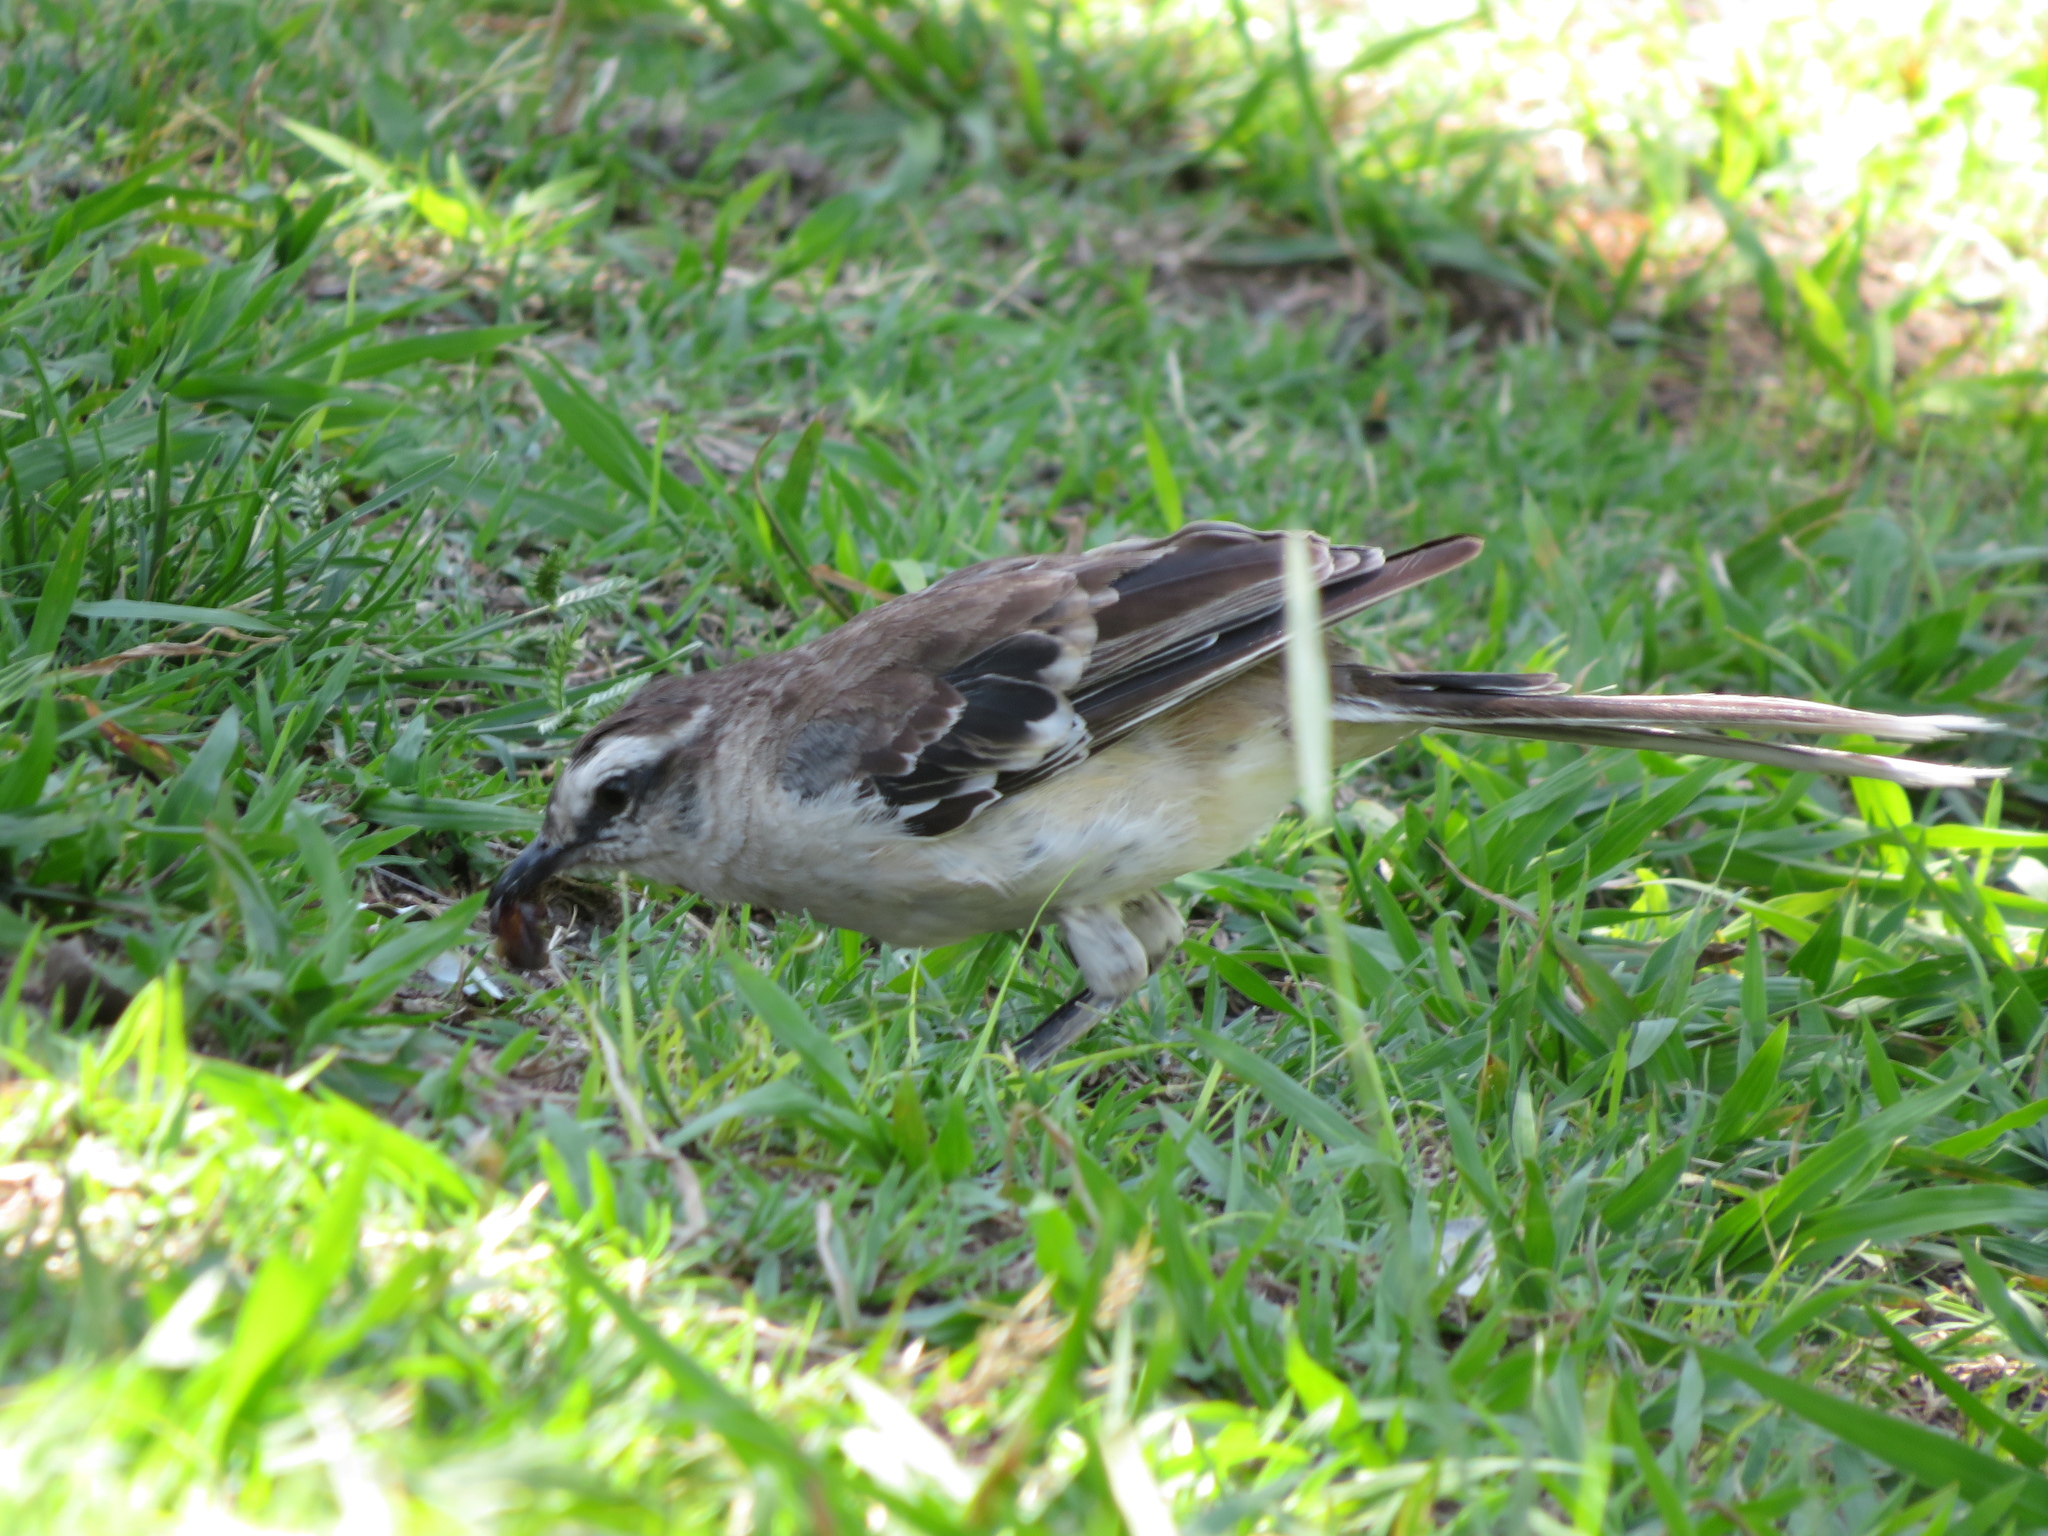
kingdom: Animalia
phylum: Chordata
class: Aves
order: Passeriformes
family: Mimidae
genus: Mimus
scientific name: Mimus saturninus
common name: Chalk-browed mockingbird
